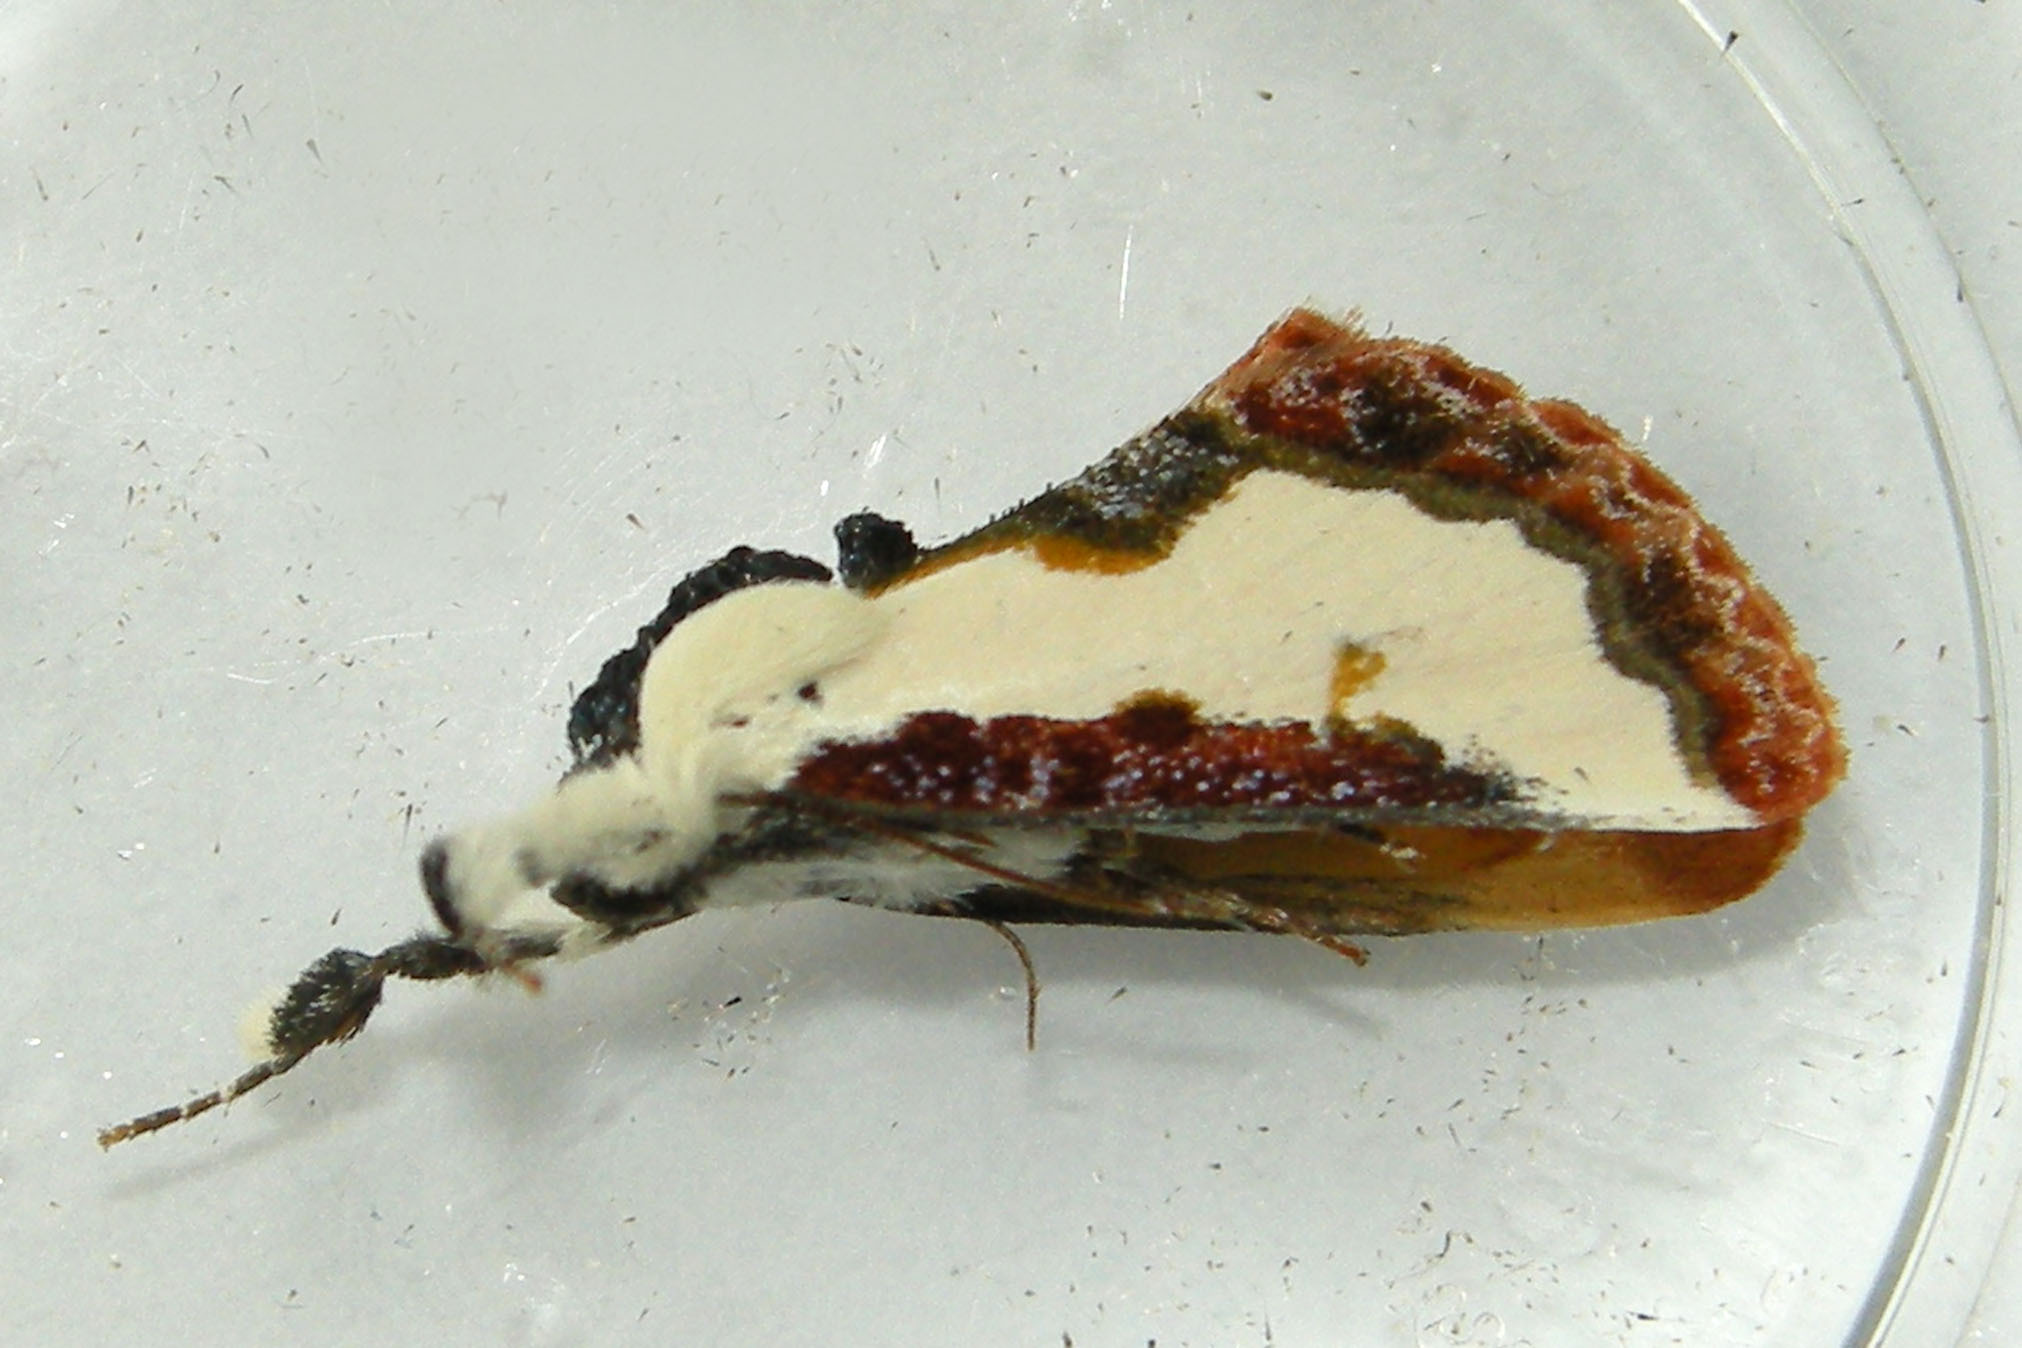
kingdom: Animalia
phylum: Arthropoda
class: Insecta
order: Lepidoptera
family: Noctuidae
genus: Eudryas
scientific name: Eudryas unio
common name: Pearly wood-nymph
